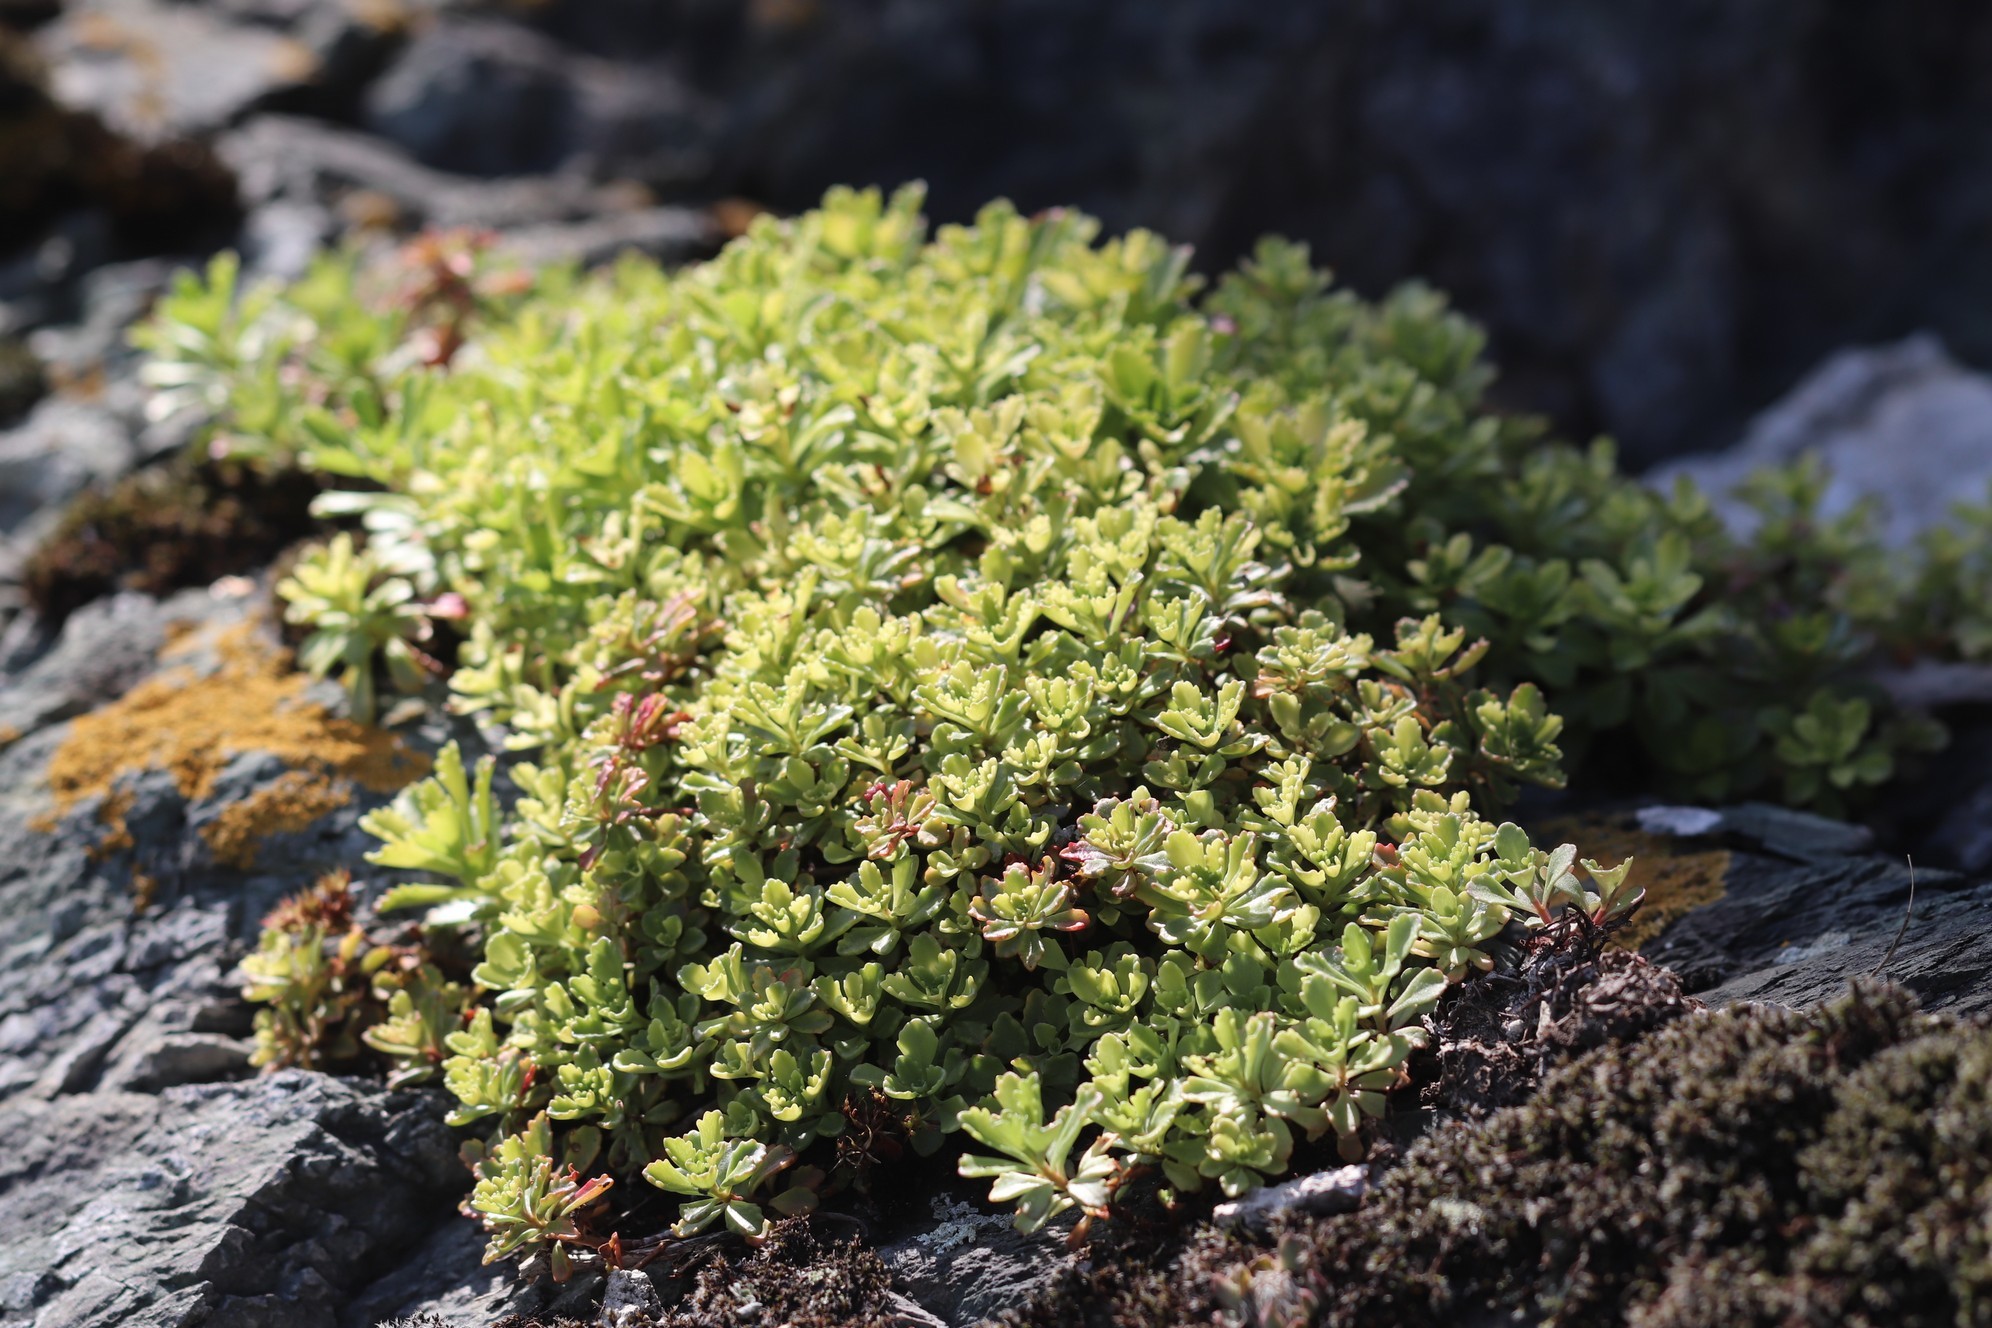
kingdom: Plantae
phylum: Tracheophyta
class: Magnoliopsida
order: Saxifragales
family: Crassulaceae
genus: Phedimus
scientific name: Phedimus hybridus
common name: Hybrid stonecrop
